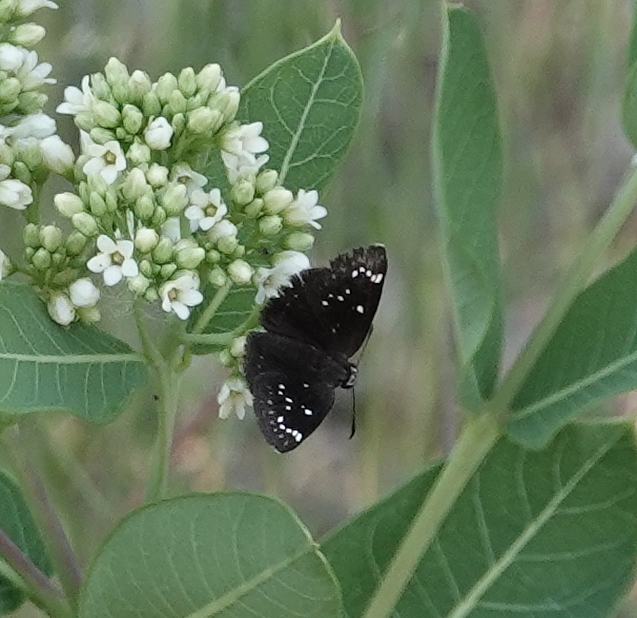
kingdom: Animalia
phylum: Arthropoda
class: Insecta
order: Lepidoptera
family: Hesperiidae
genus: Pholisora
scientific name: Pholisora catullus
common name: Common sootywing
